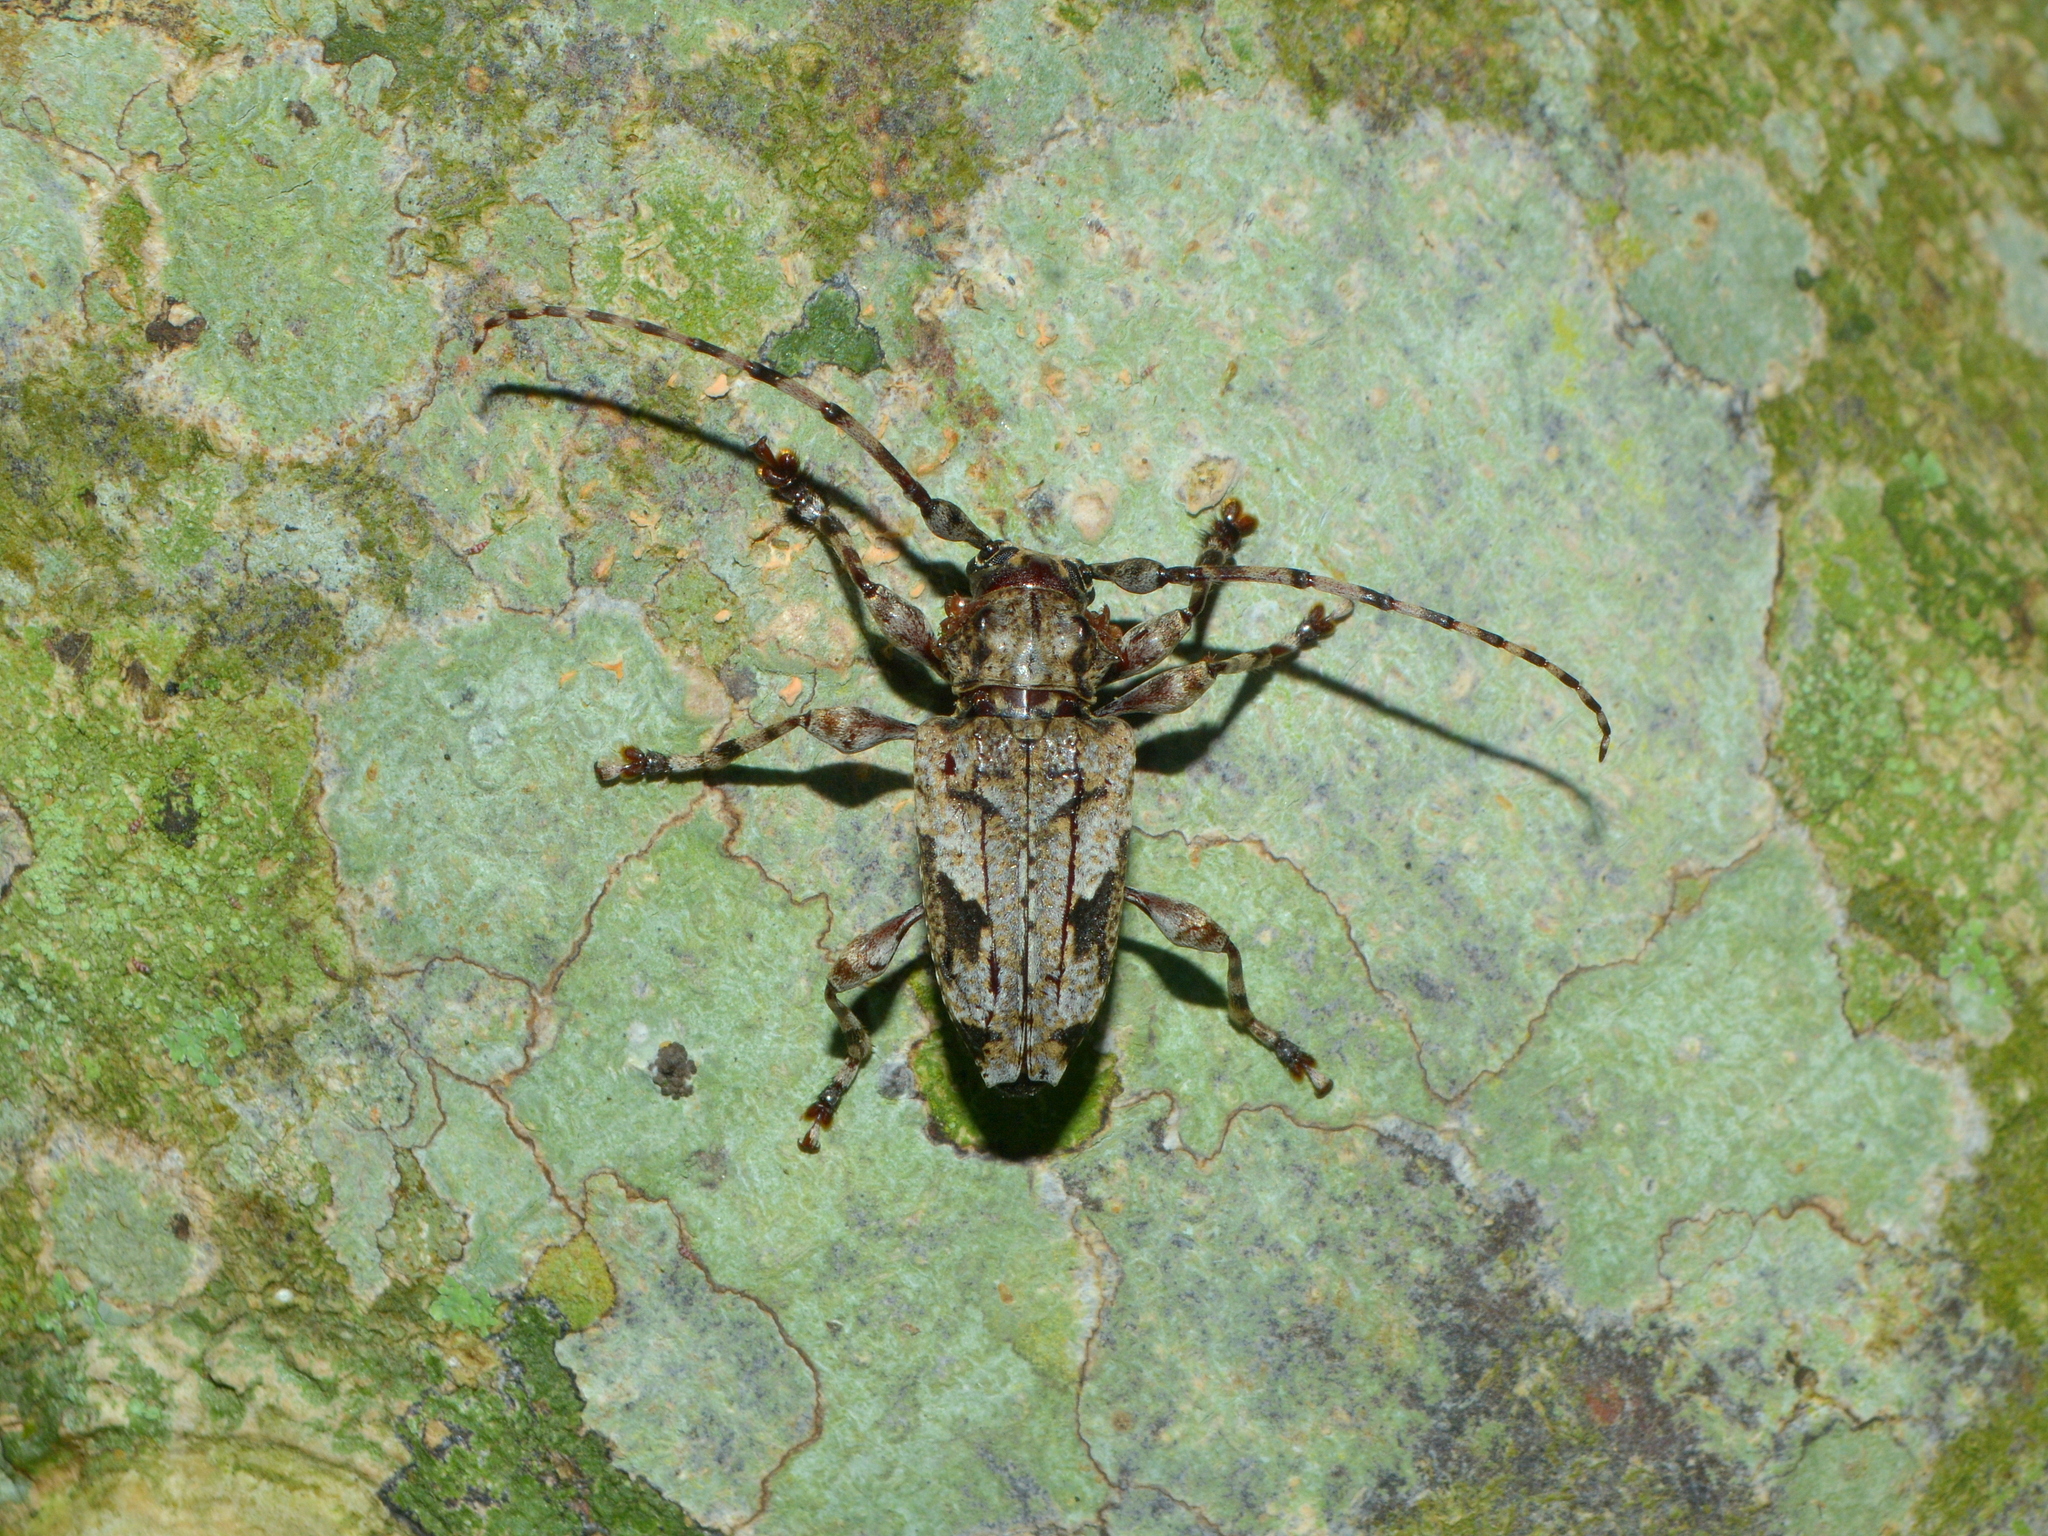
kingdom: Animalia
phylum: Arthropoda
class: Insecta
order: Coleoptera
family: Cerambycidae
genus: Psapharochrus
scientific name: Psapharochrus jaspideus
